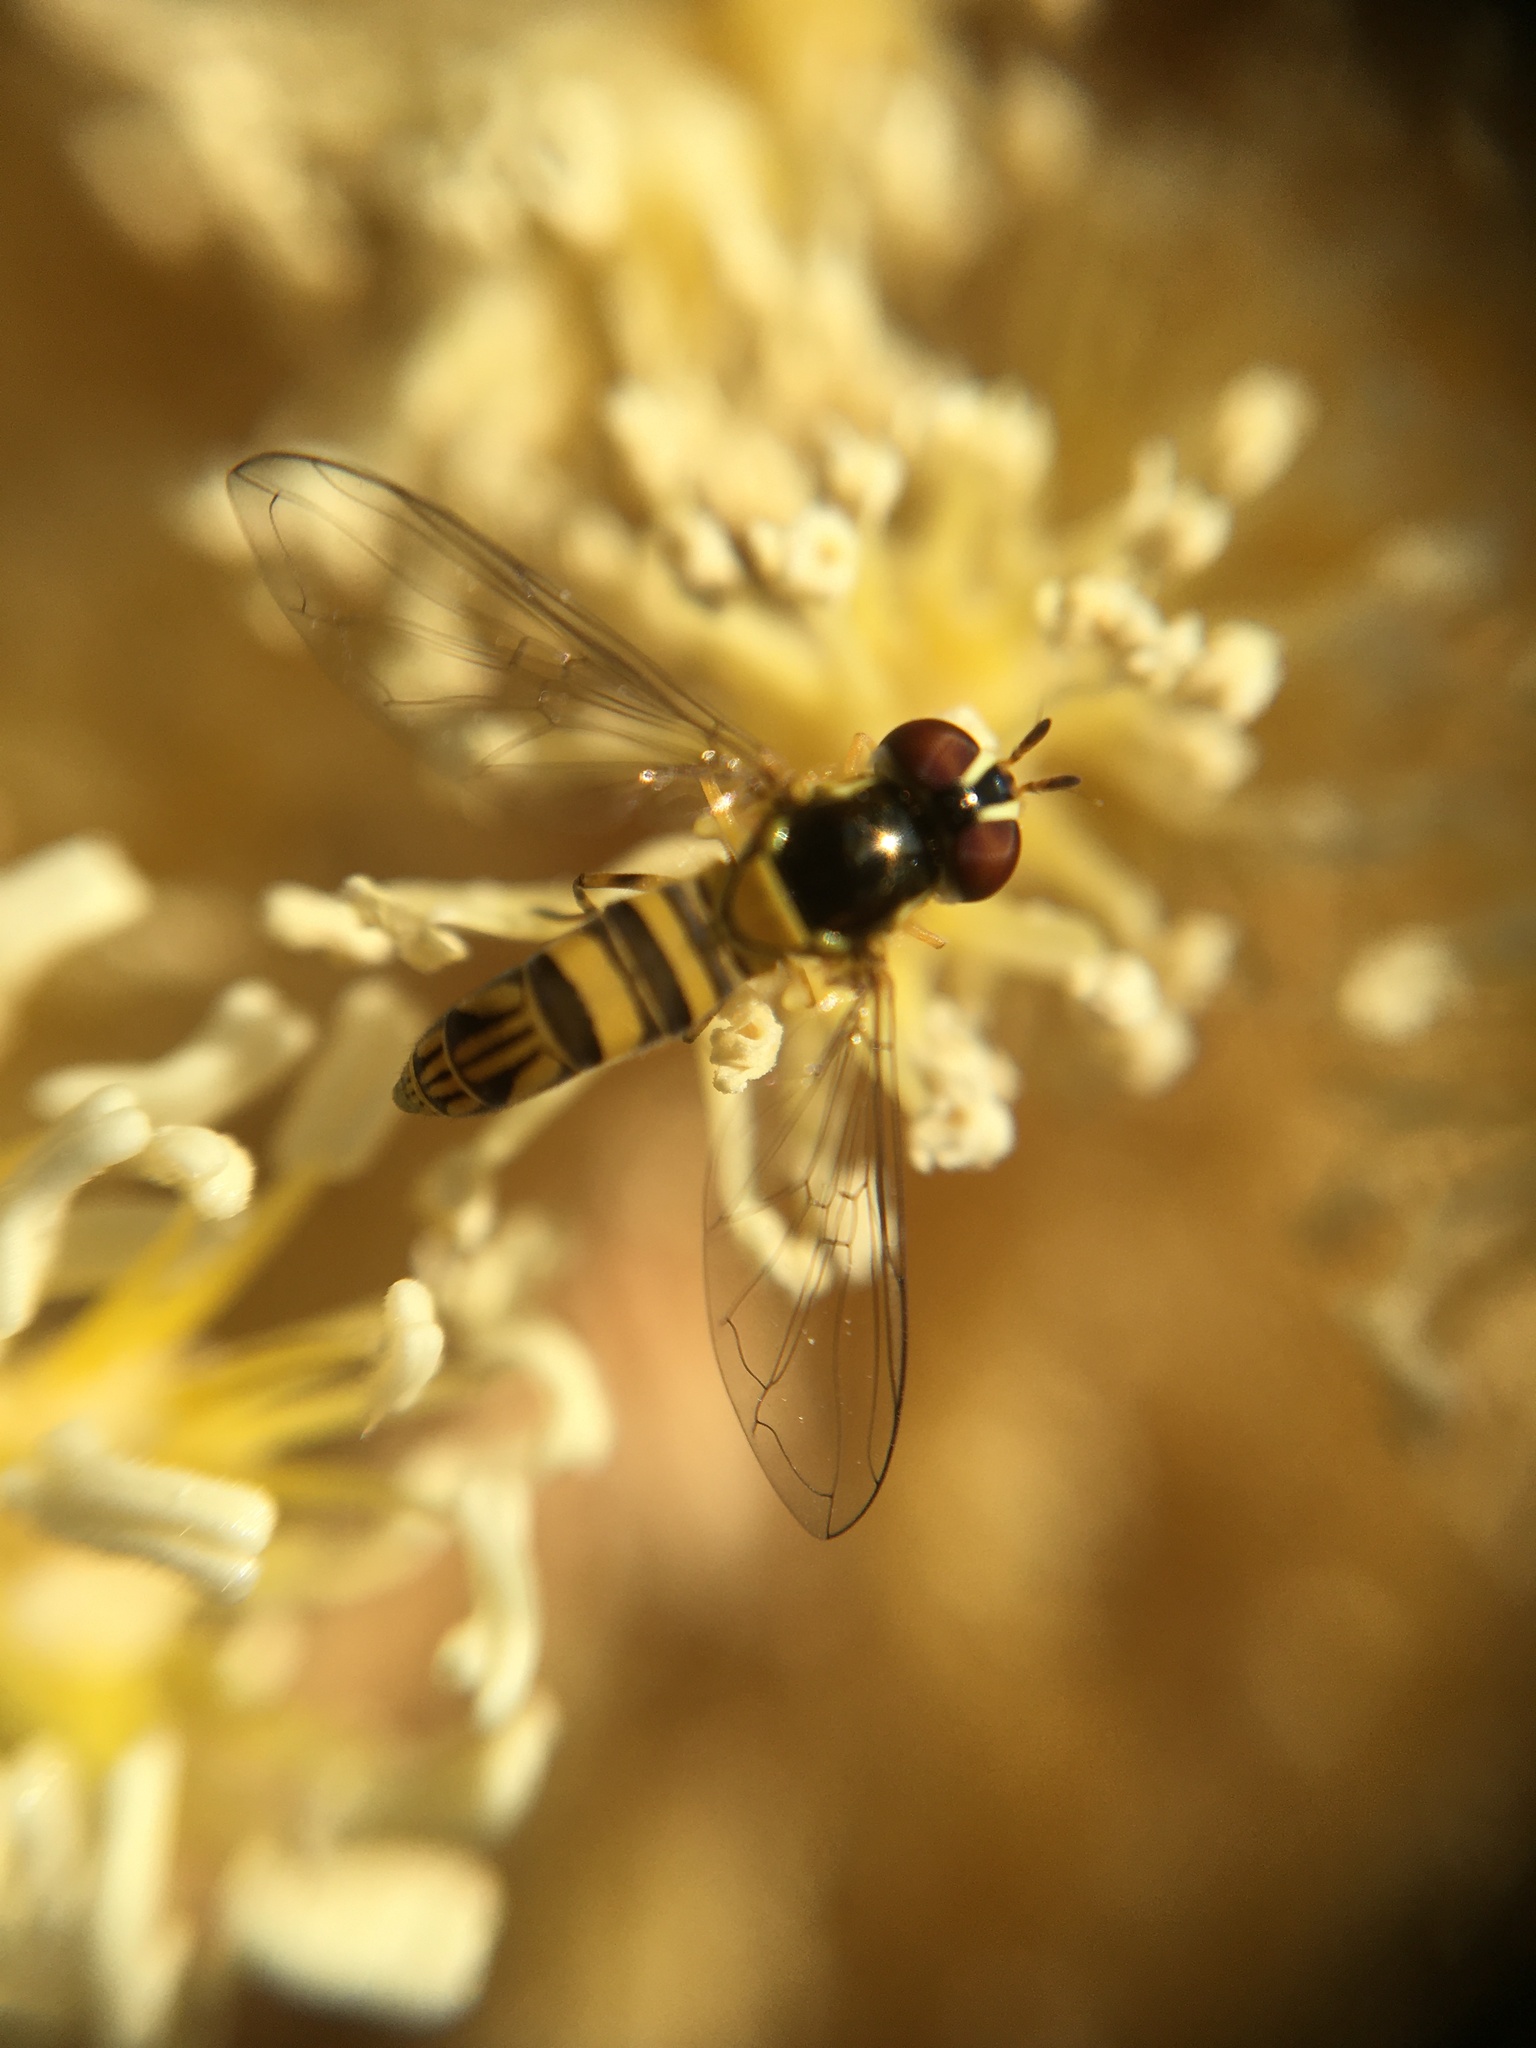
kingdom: Animalia
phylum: Arthropoda
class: Insecta
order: Diptera
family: Syrphidae
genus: Allograpta
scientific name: Allograpta obliqua
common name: Common oblique syrphid
